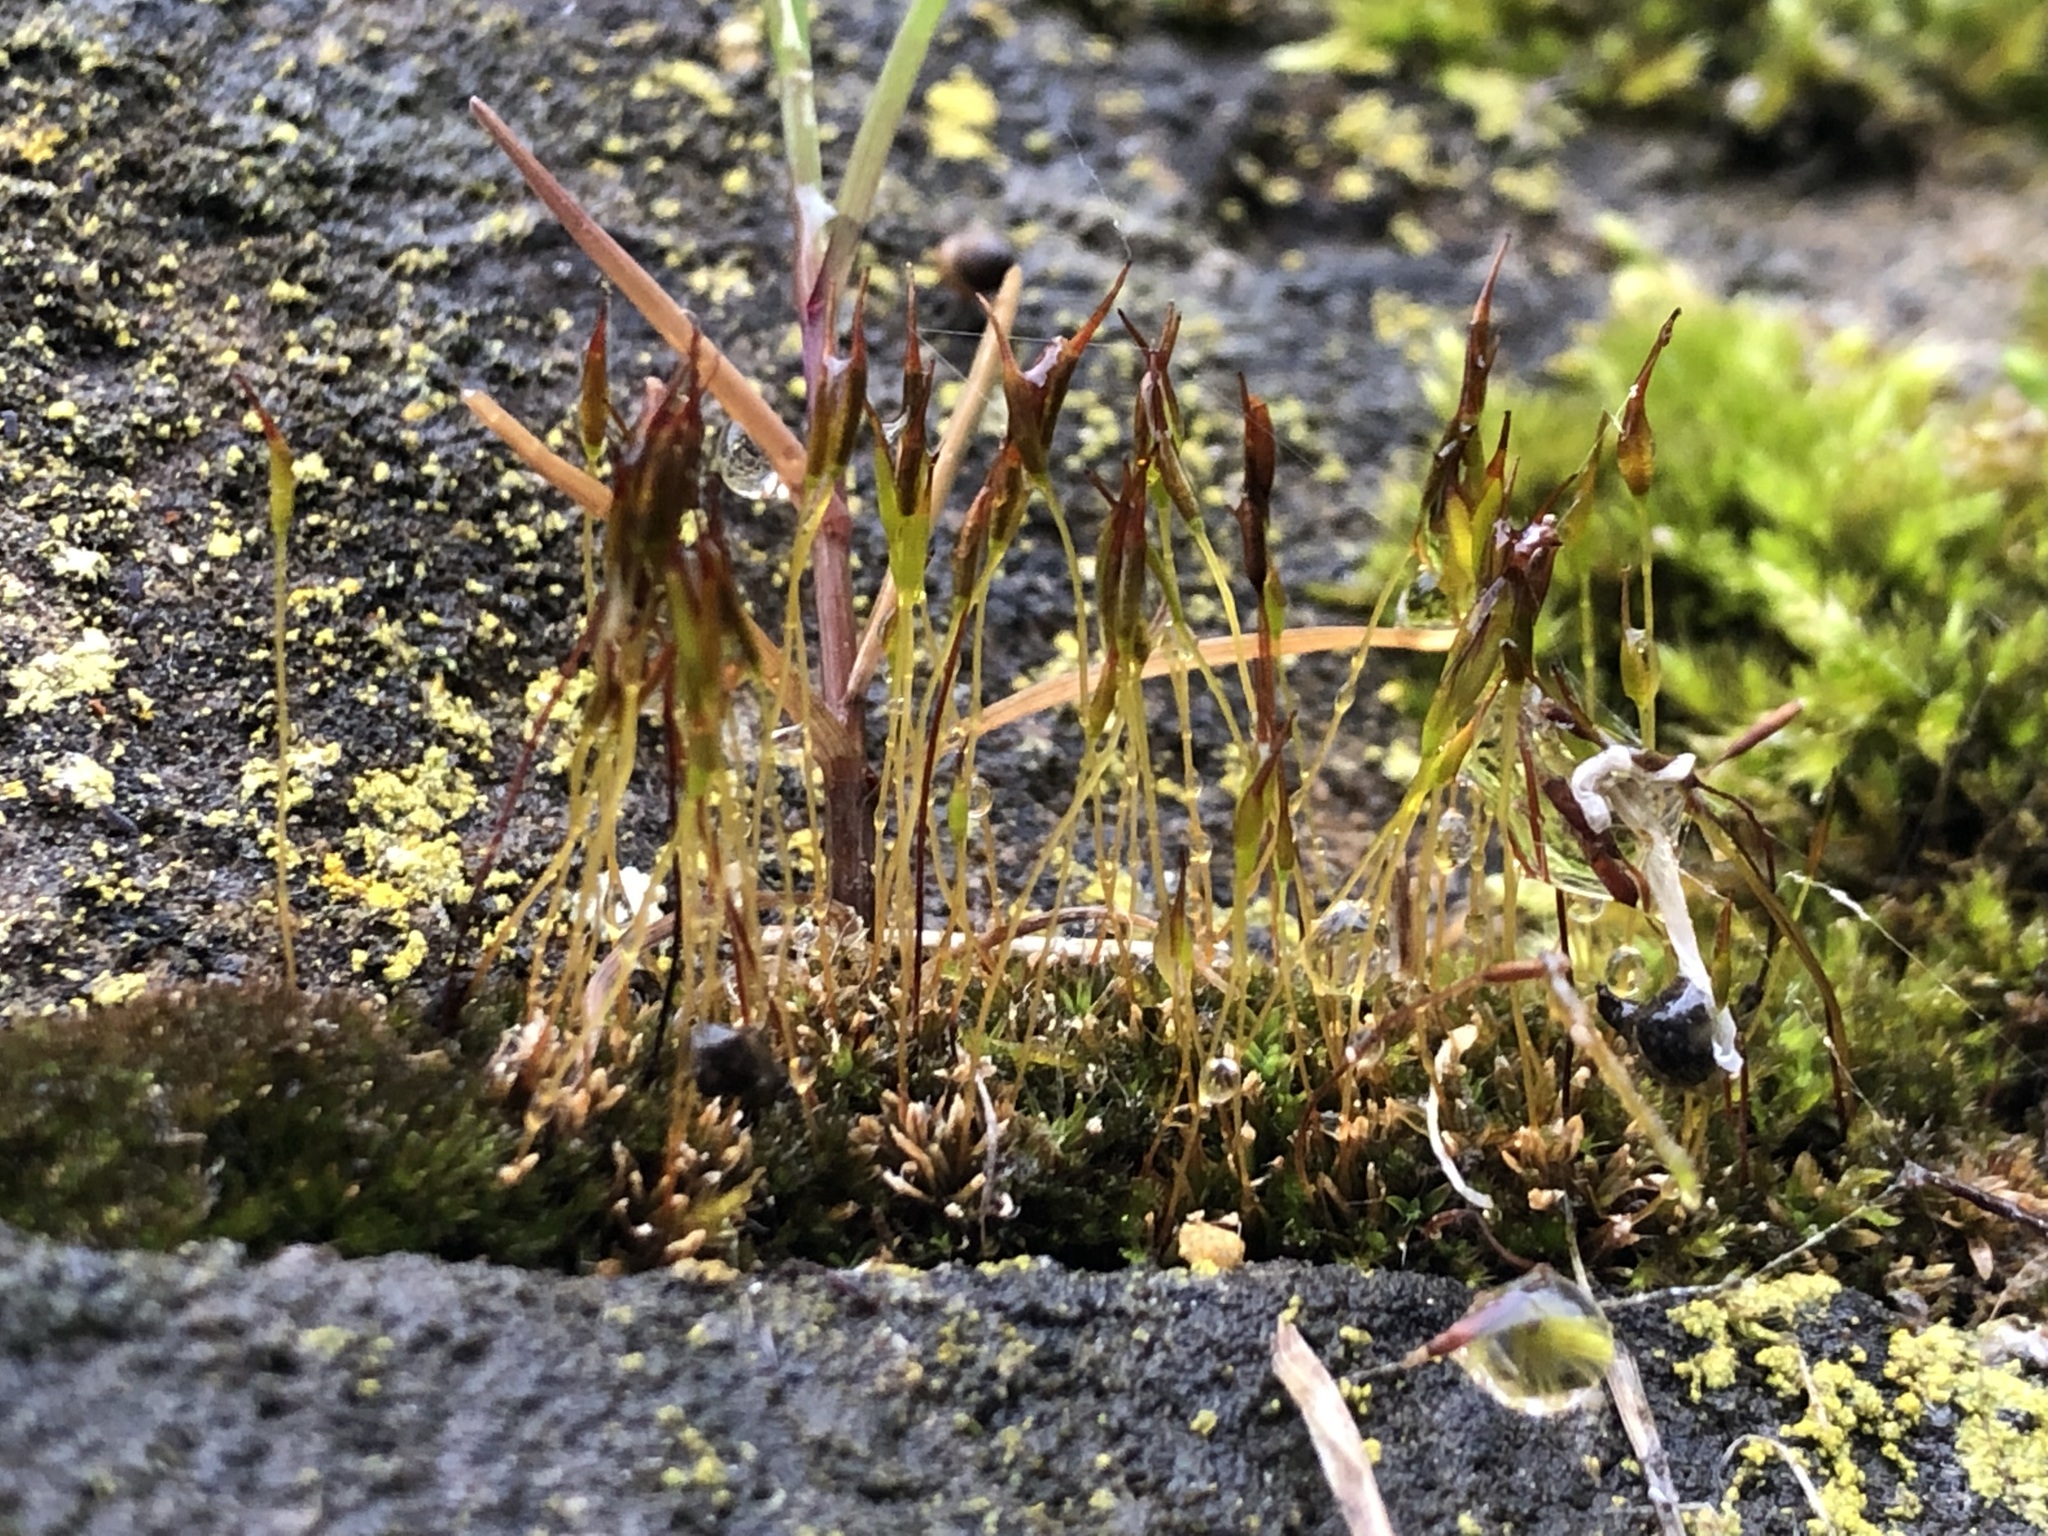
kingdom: Plantae
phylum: Bryophyta
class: Bryopsida
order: Pottiales
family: Pottiaceae
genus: Tortula
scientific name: Tortula muralis
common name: Wall screw-moss
